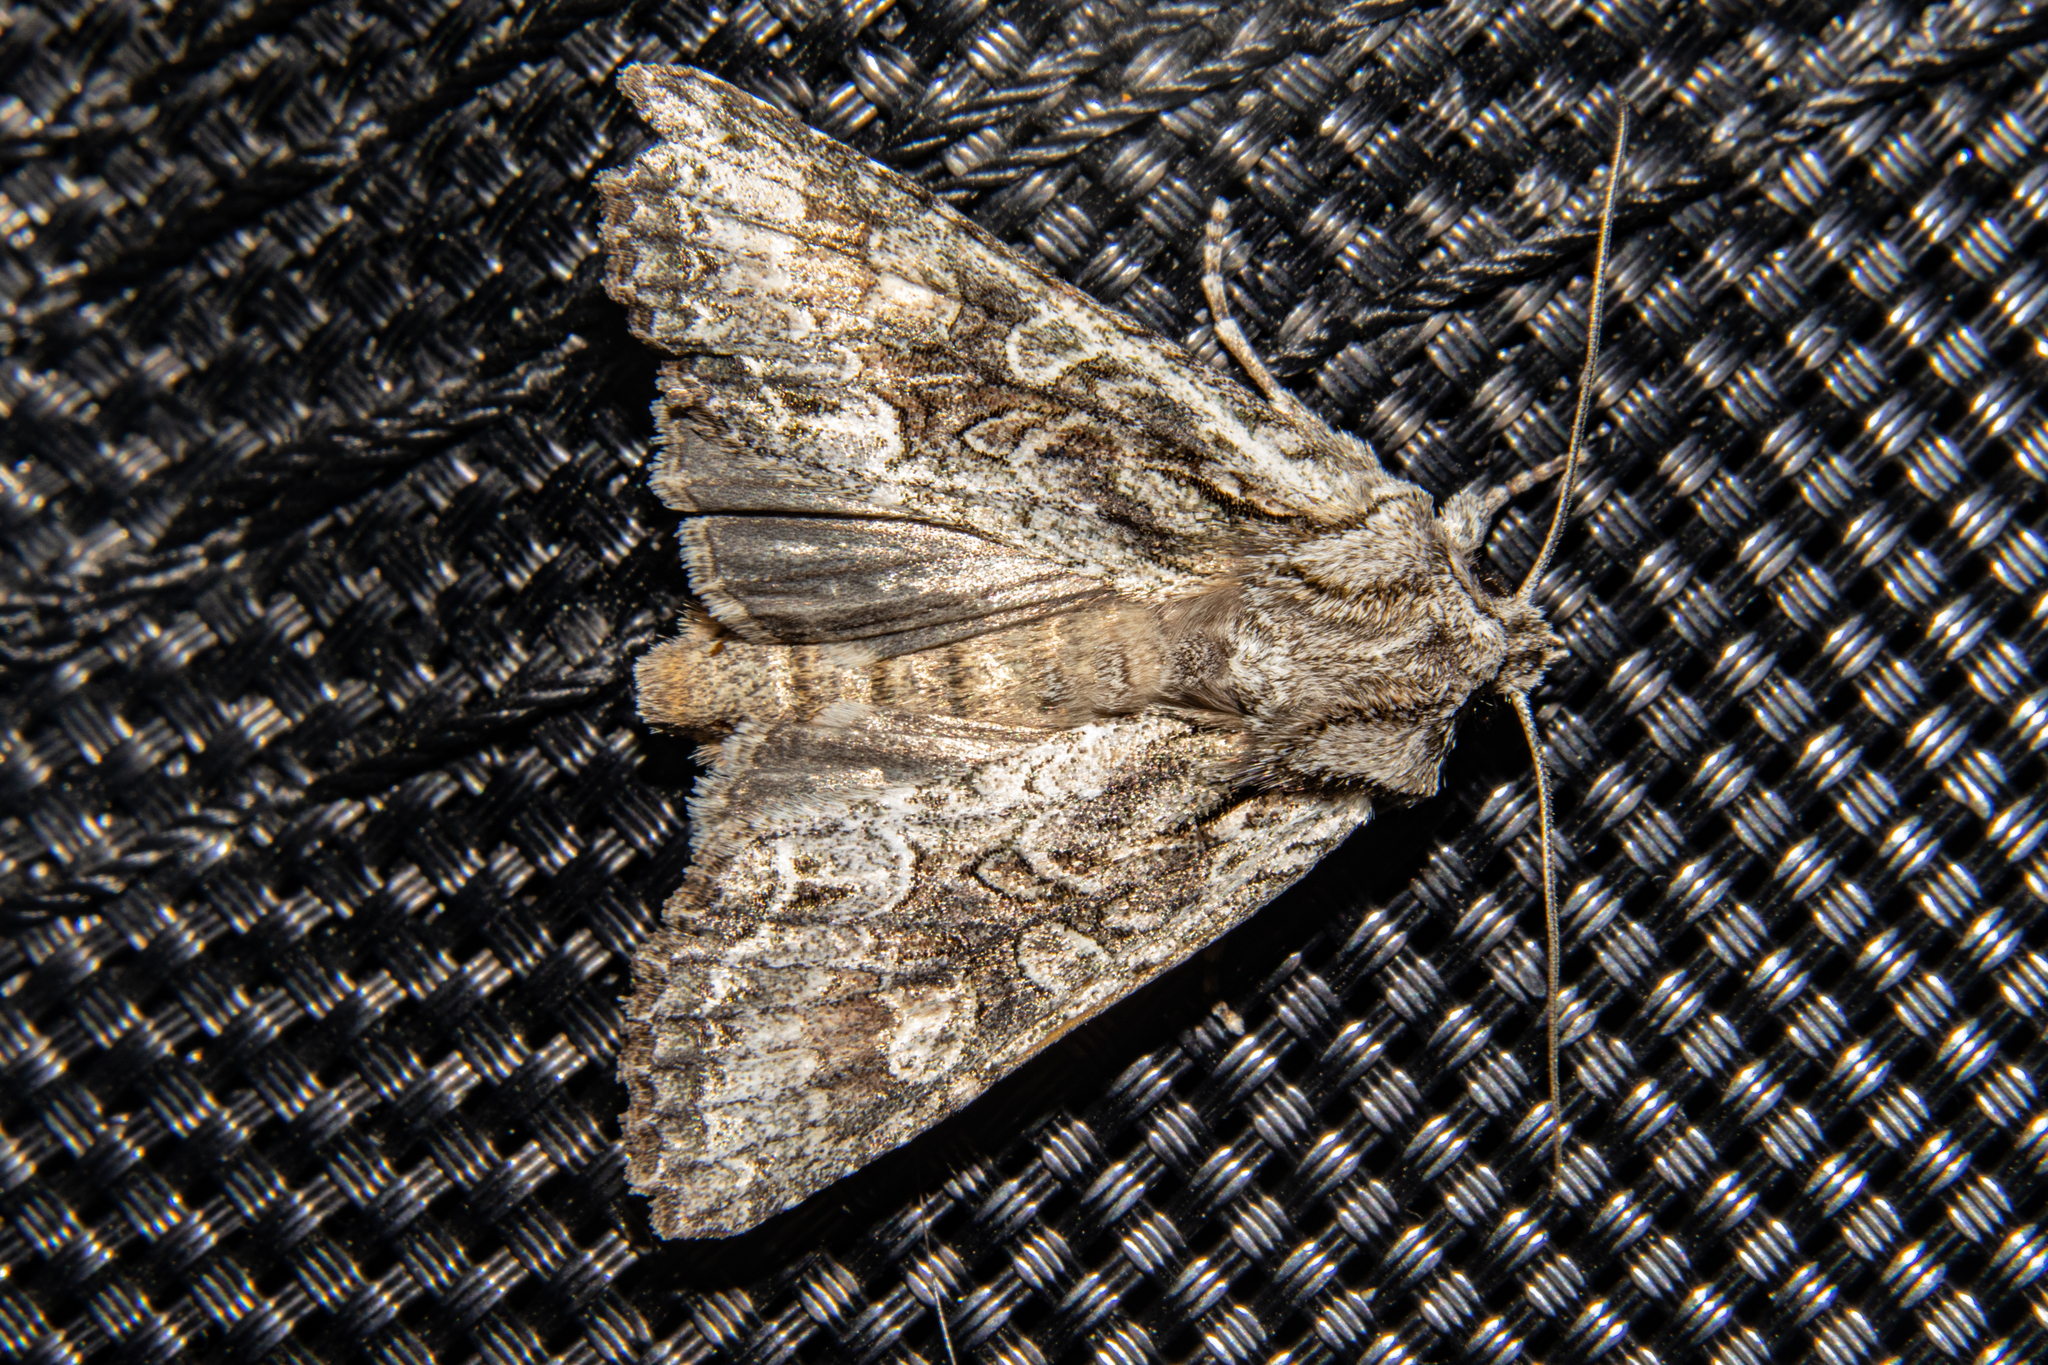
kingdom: Animalia
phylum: Arthropoda
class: Insecta
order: Lepidoptera
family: Noctuidae
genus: Ichneutica
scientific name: Ichneutica mutans
